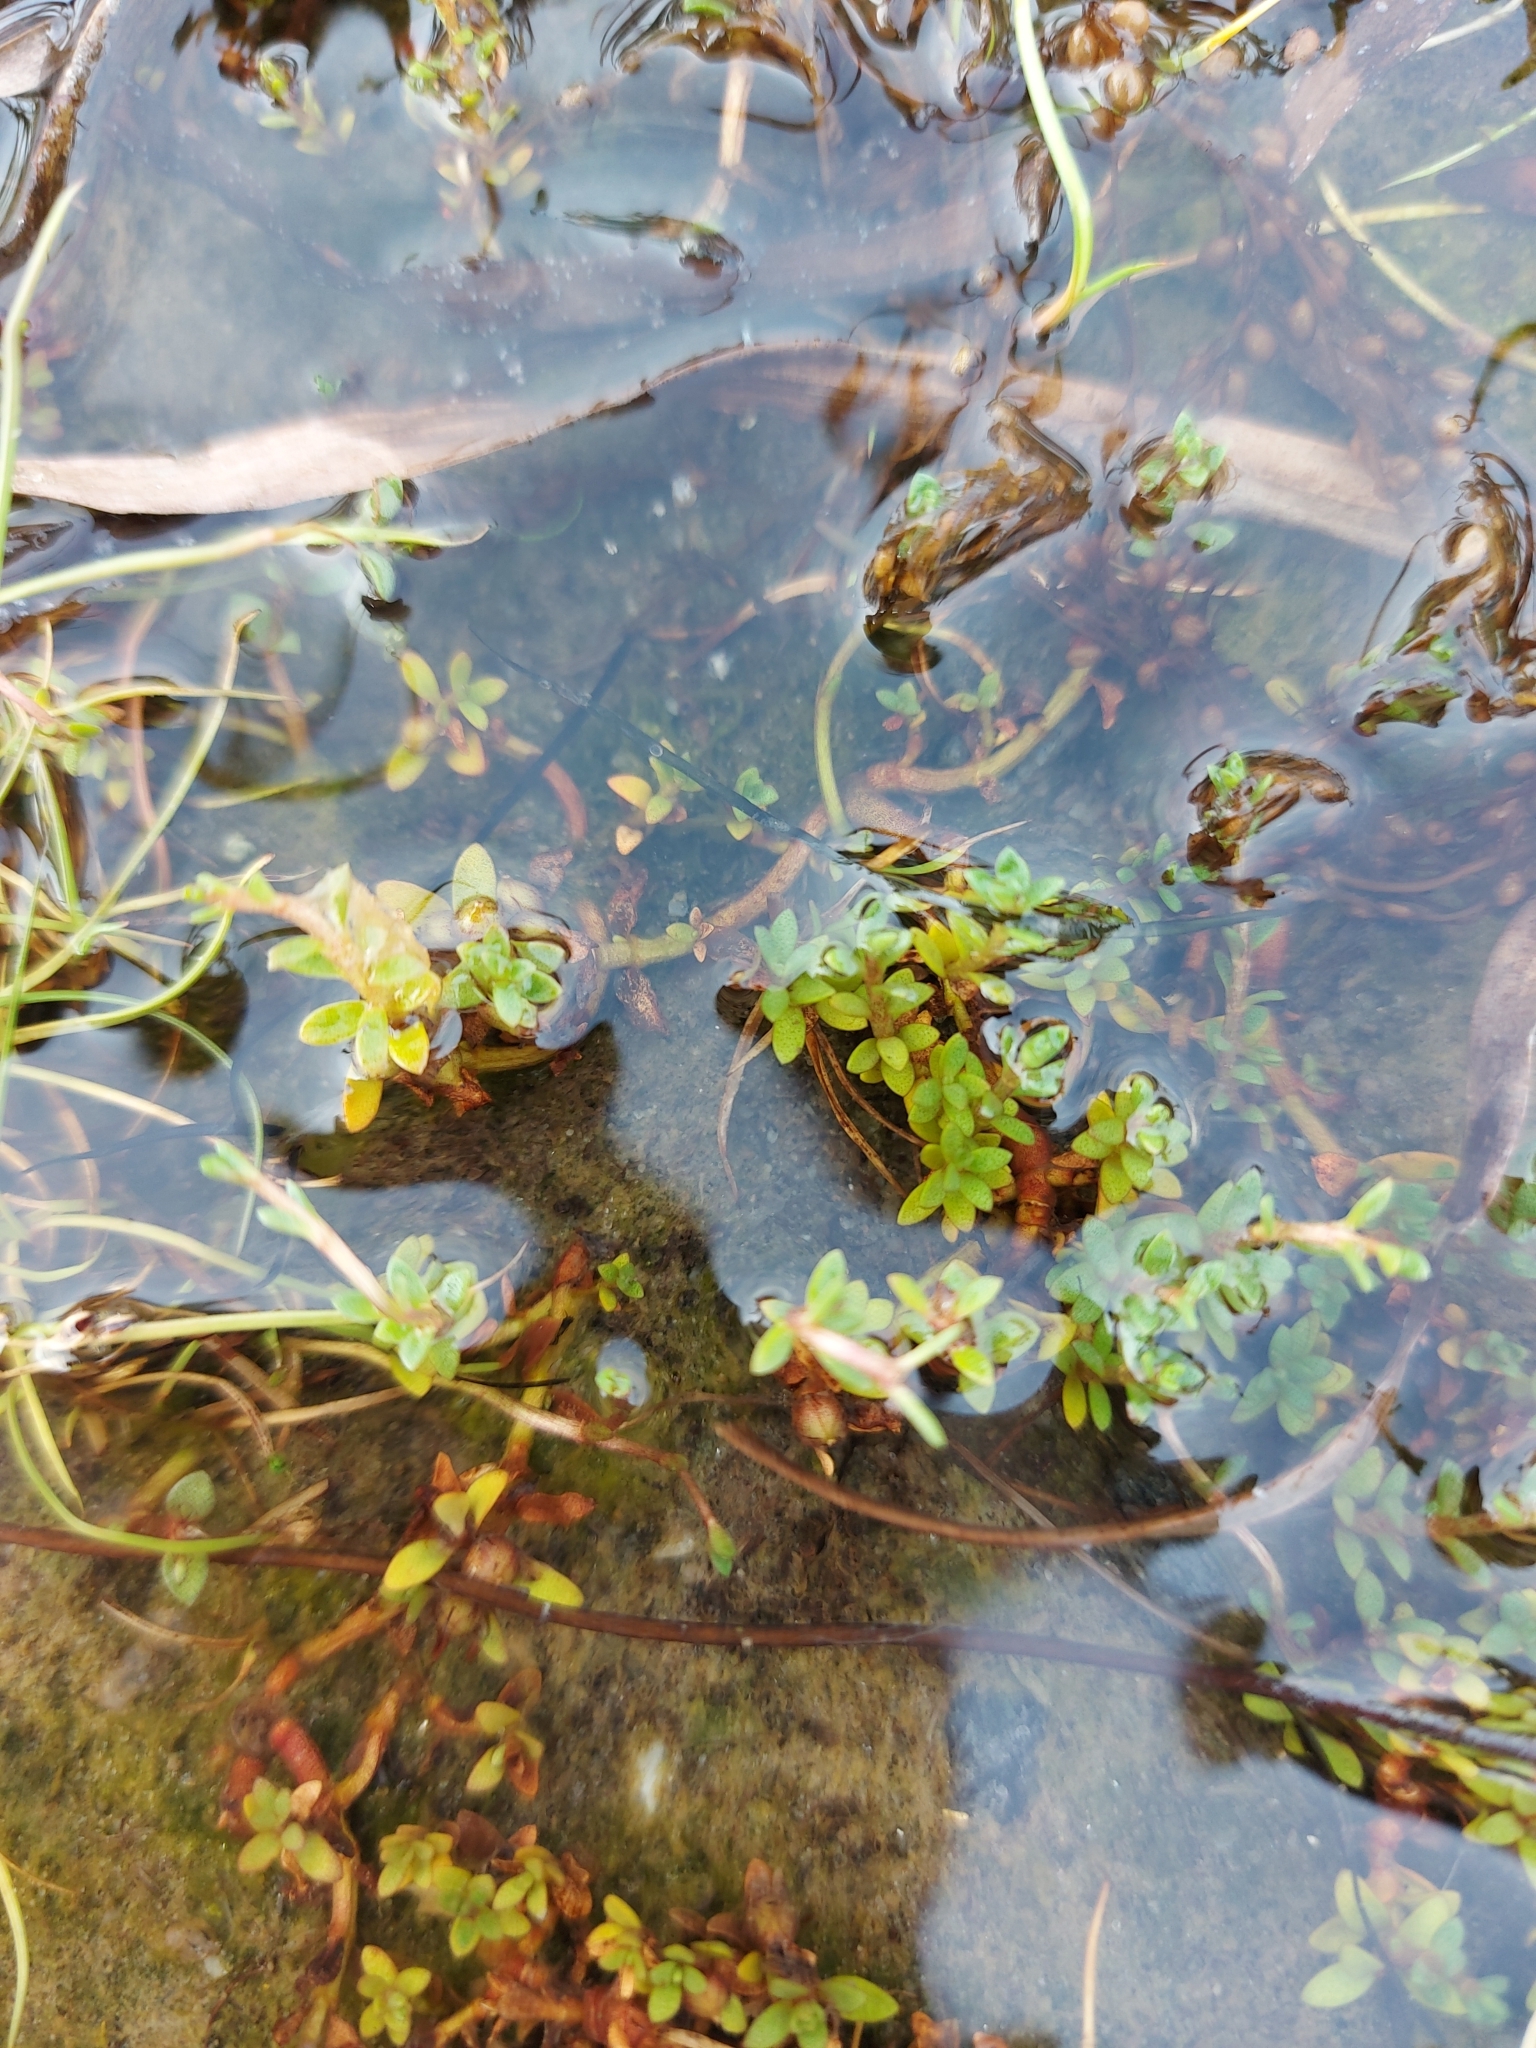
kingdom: Plantae
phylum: Tracheophyta
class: Magnoliopsida
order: Ericales
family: Primulaceae
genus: Lysimachia
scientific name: Lysimachia maritima
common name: Sea milkwort
